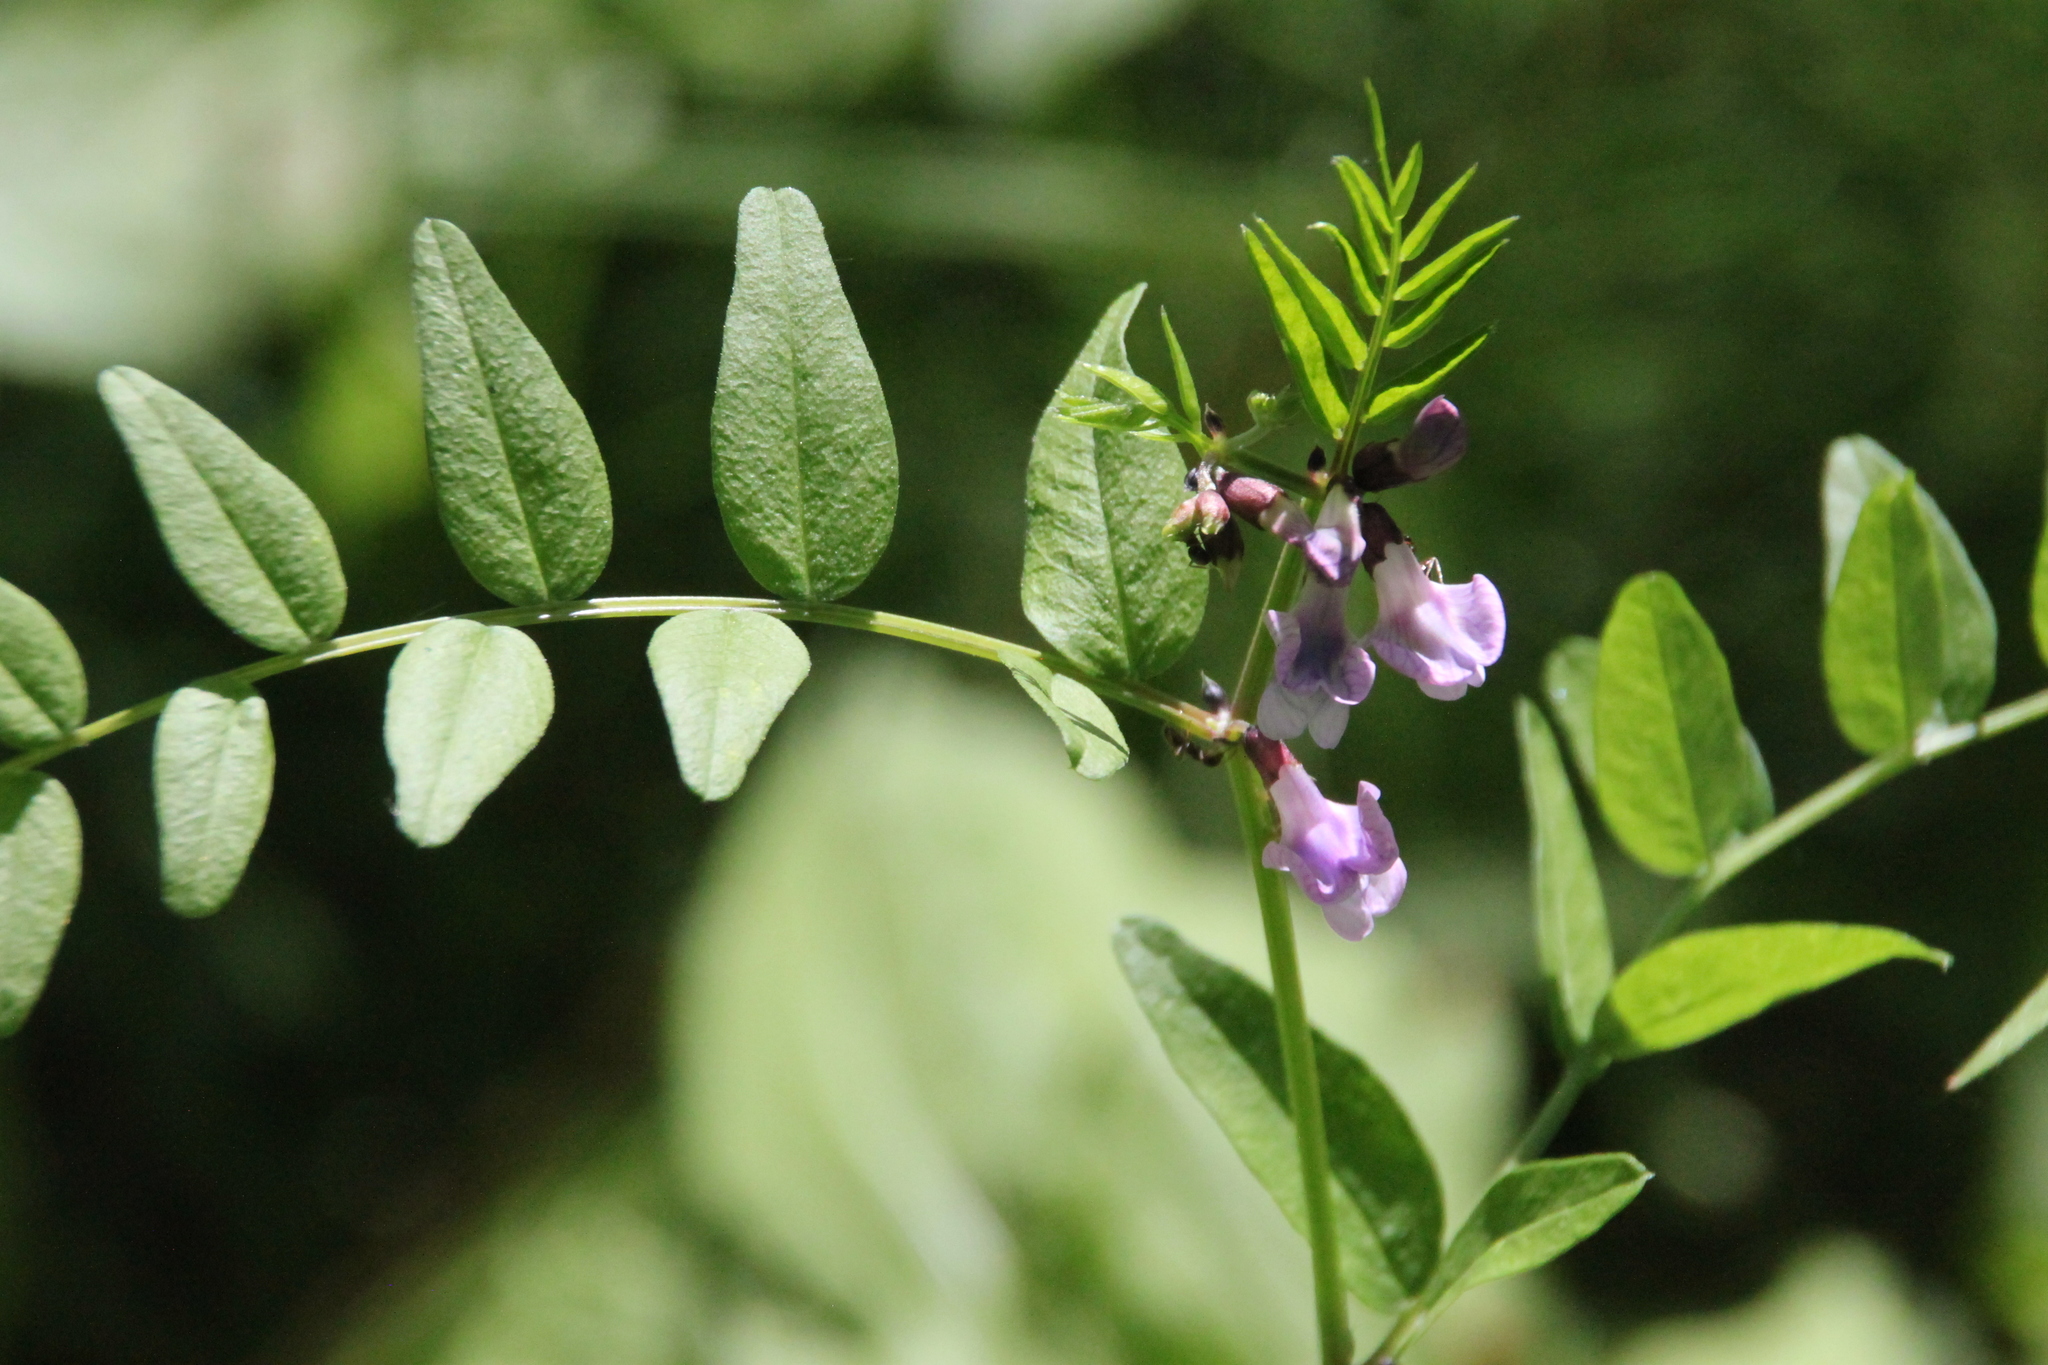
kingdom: Plantae
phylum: Tracheophyta
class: Magnoliopsida
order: Fabales
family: Fabaceae
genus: Vicia
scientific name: Vicia sepium
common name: Bush vetch
